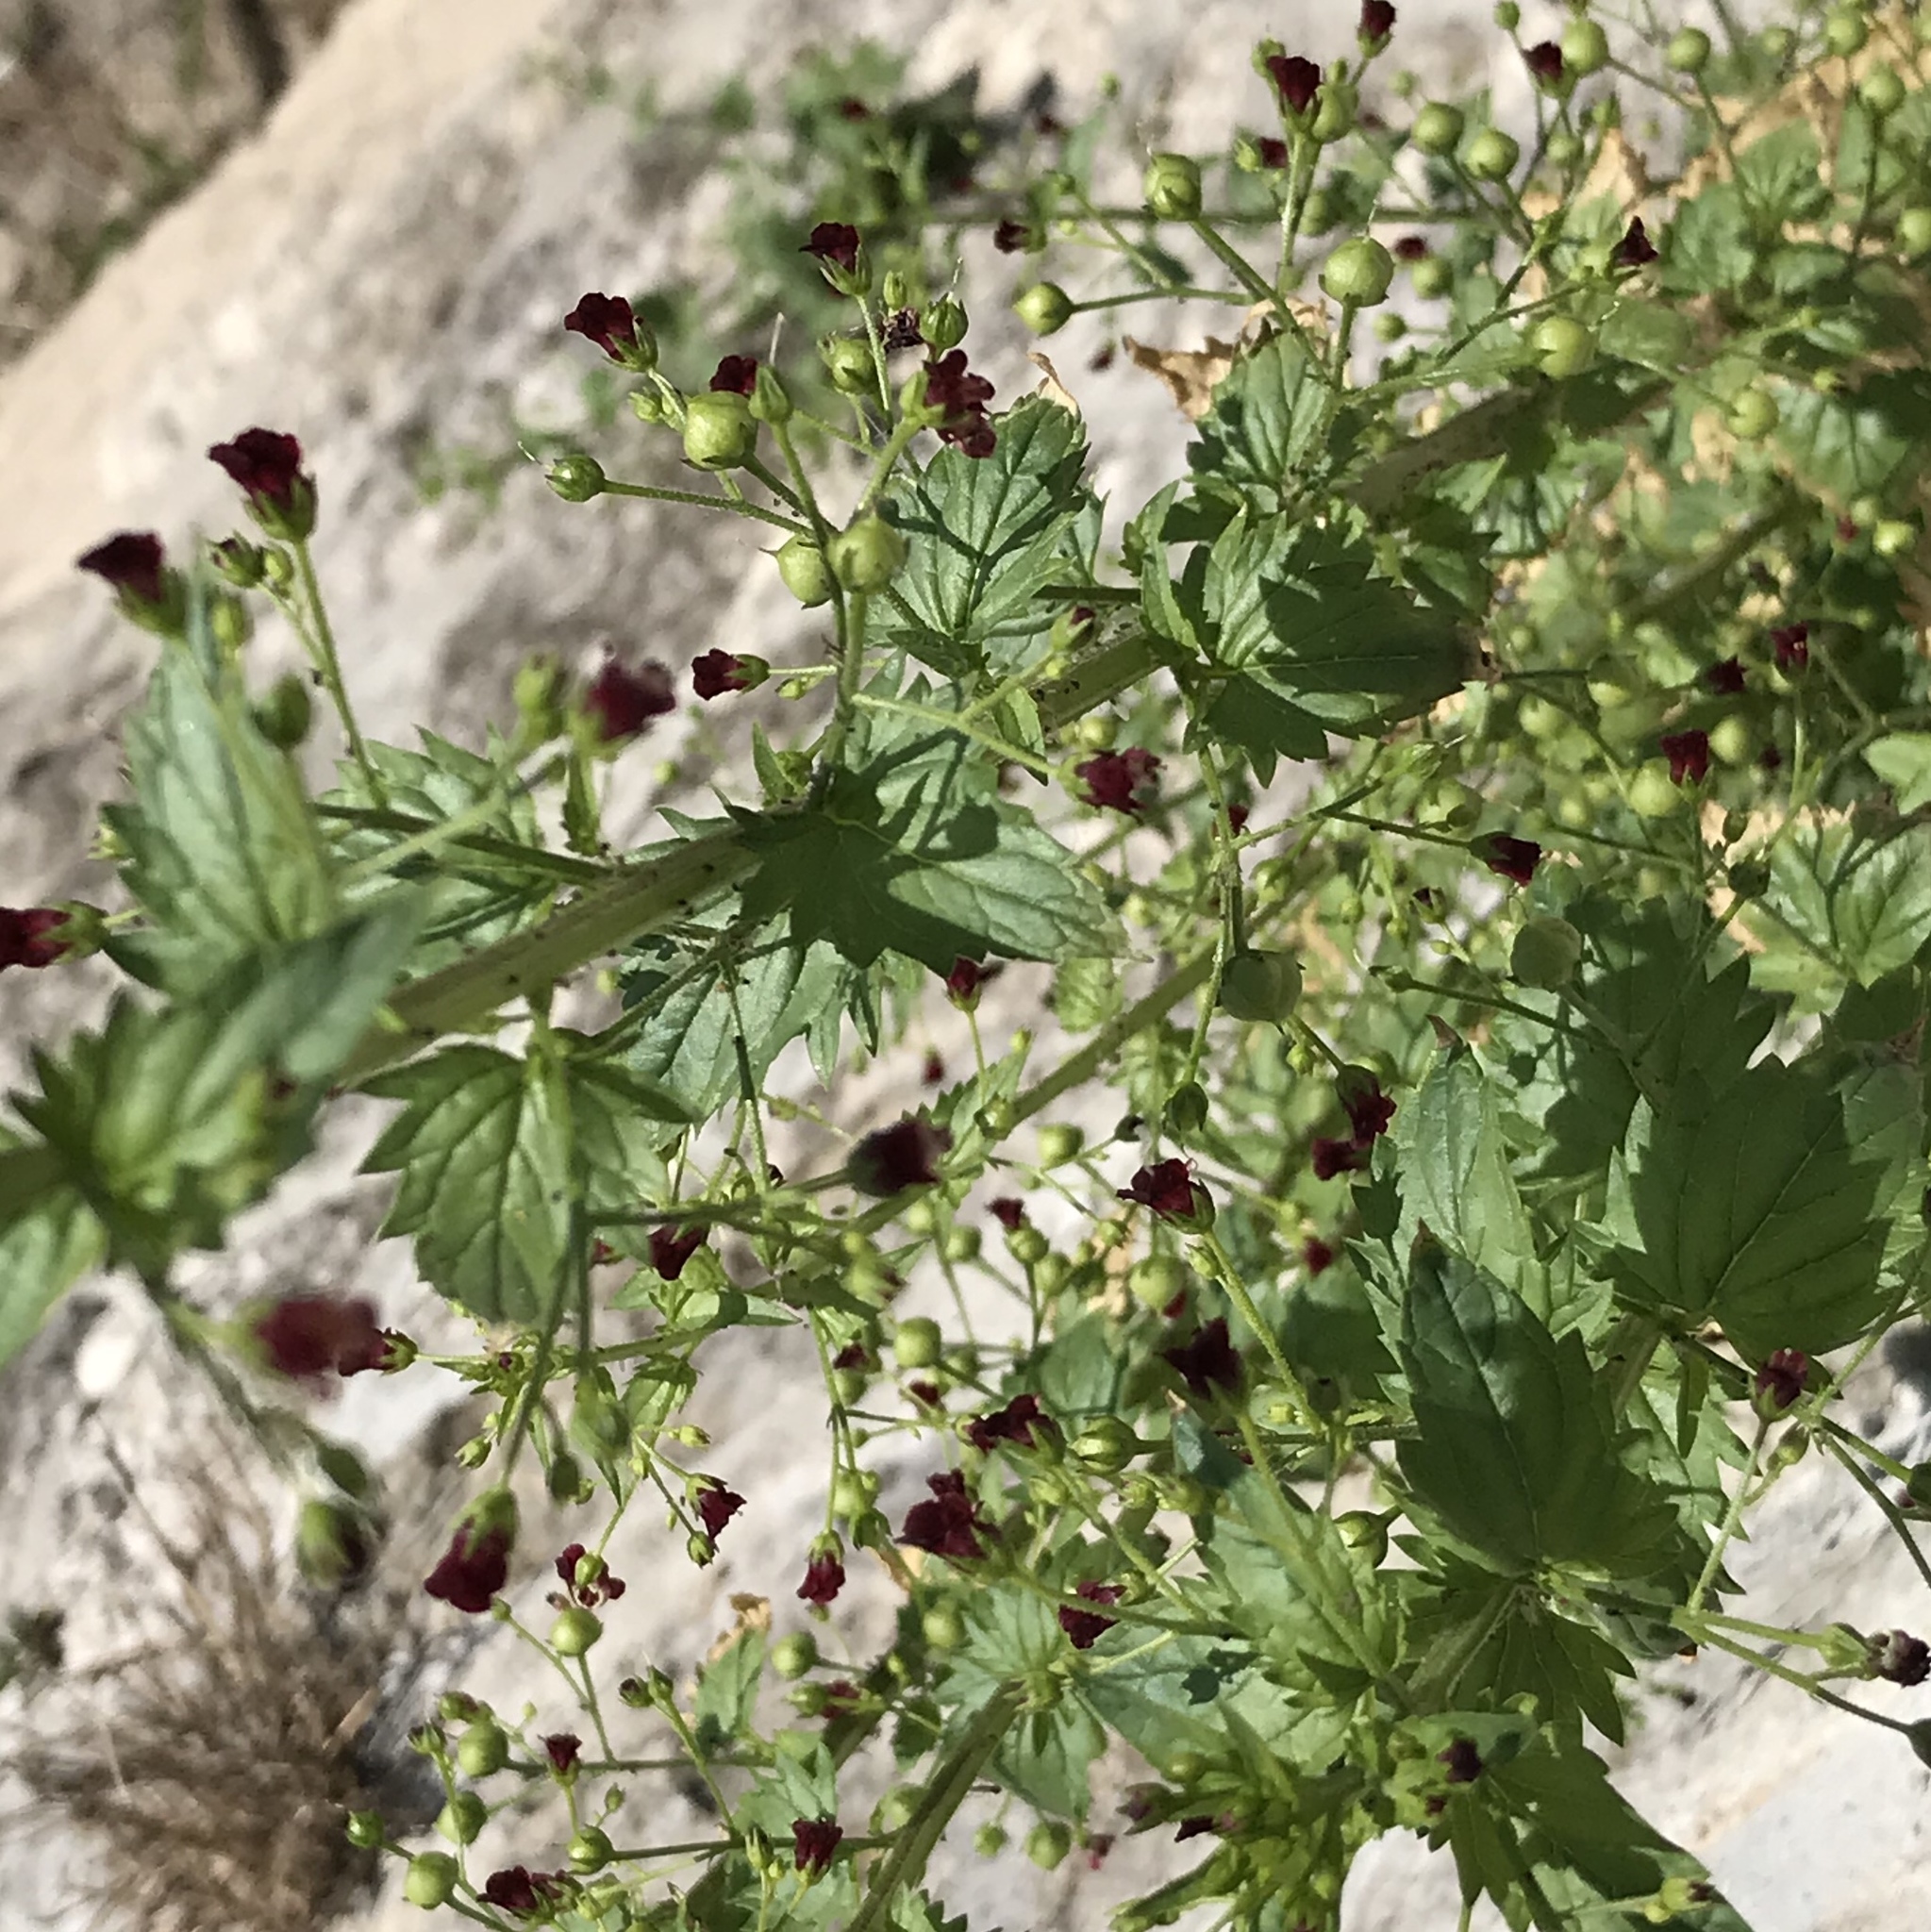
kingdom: Plantae
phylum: Tracheophyta
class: Magnoliopsida
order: Lamiales
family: Scrophulariaceae
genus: Scrophularia
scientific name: Scrophularia peregrina
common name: Mediterranean figwort
